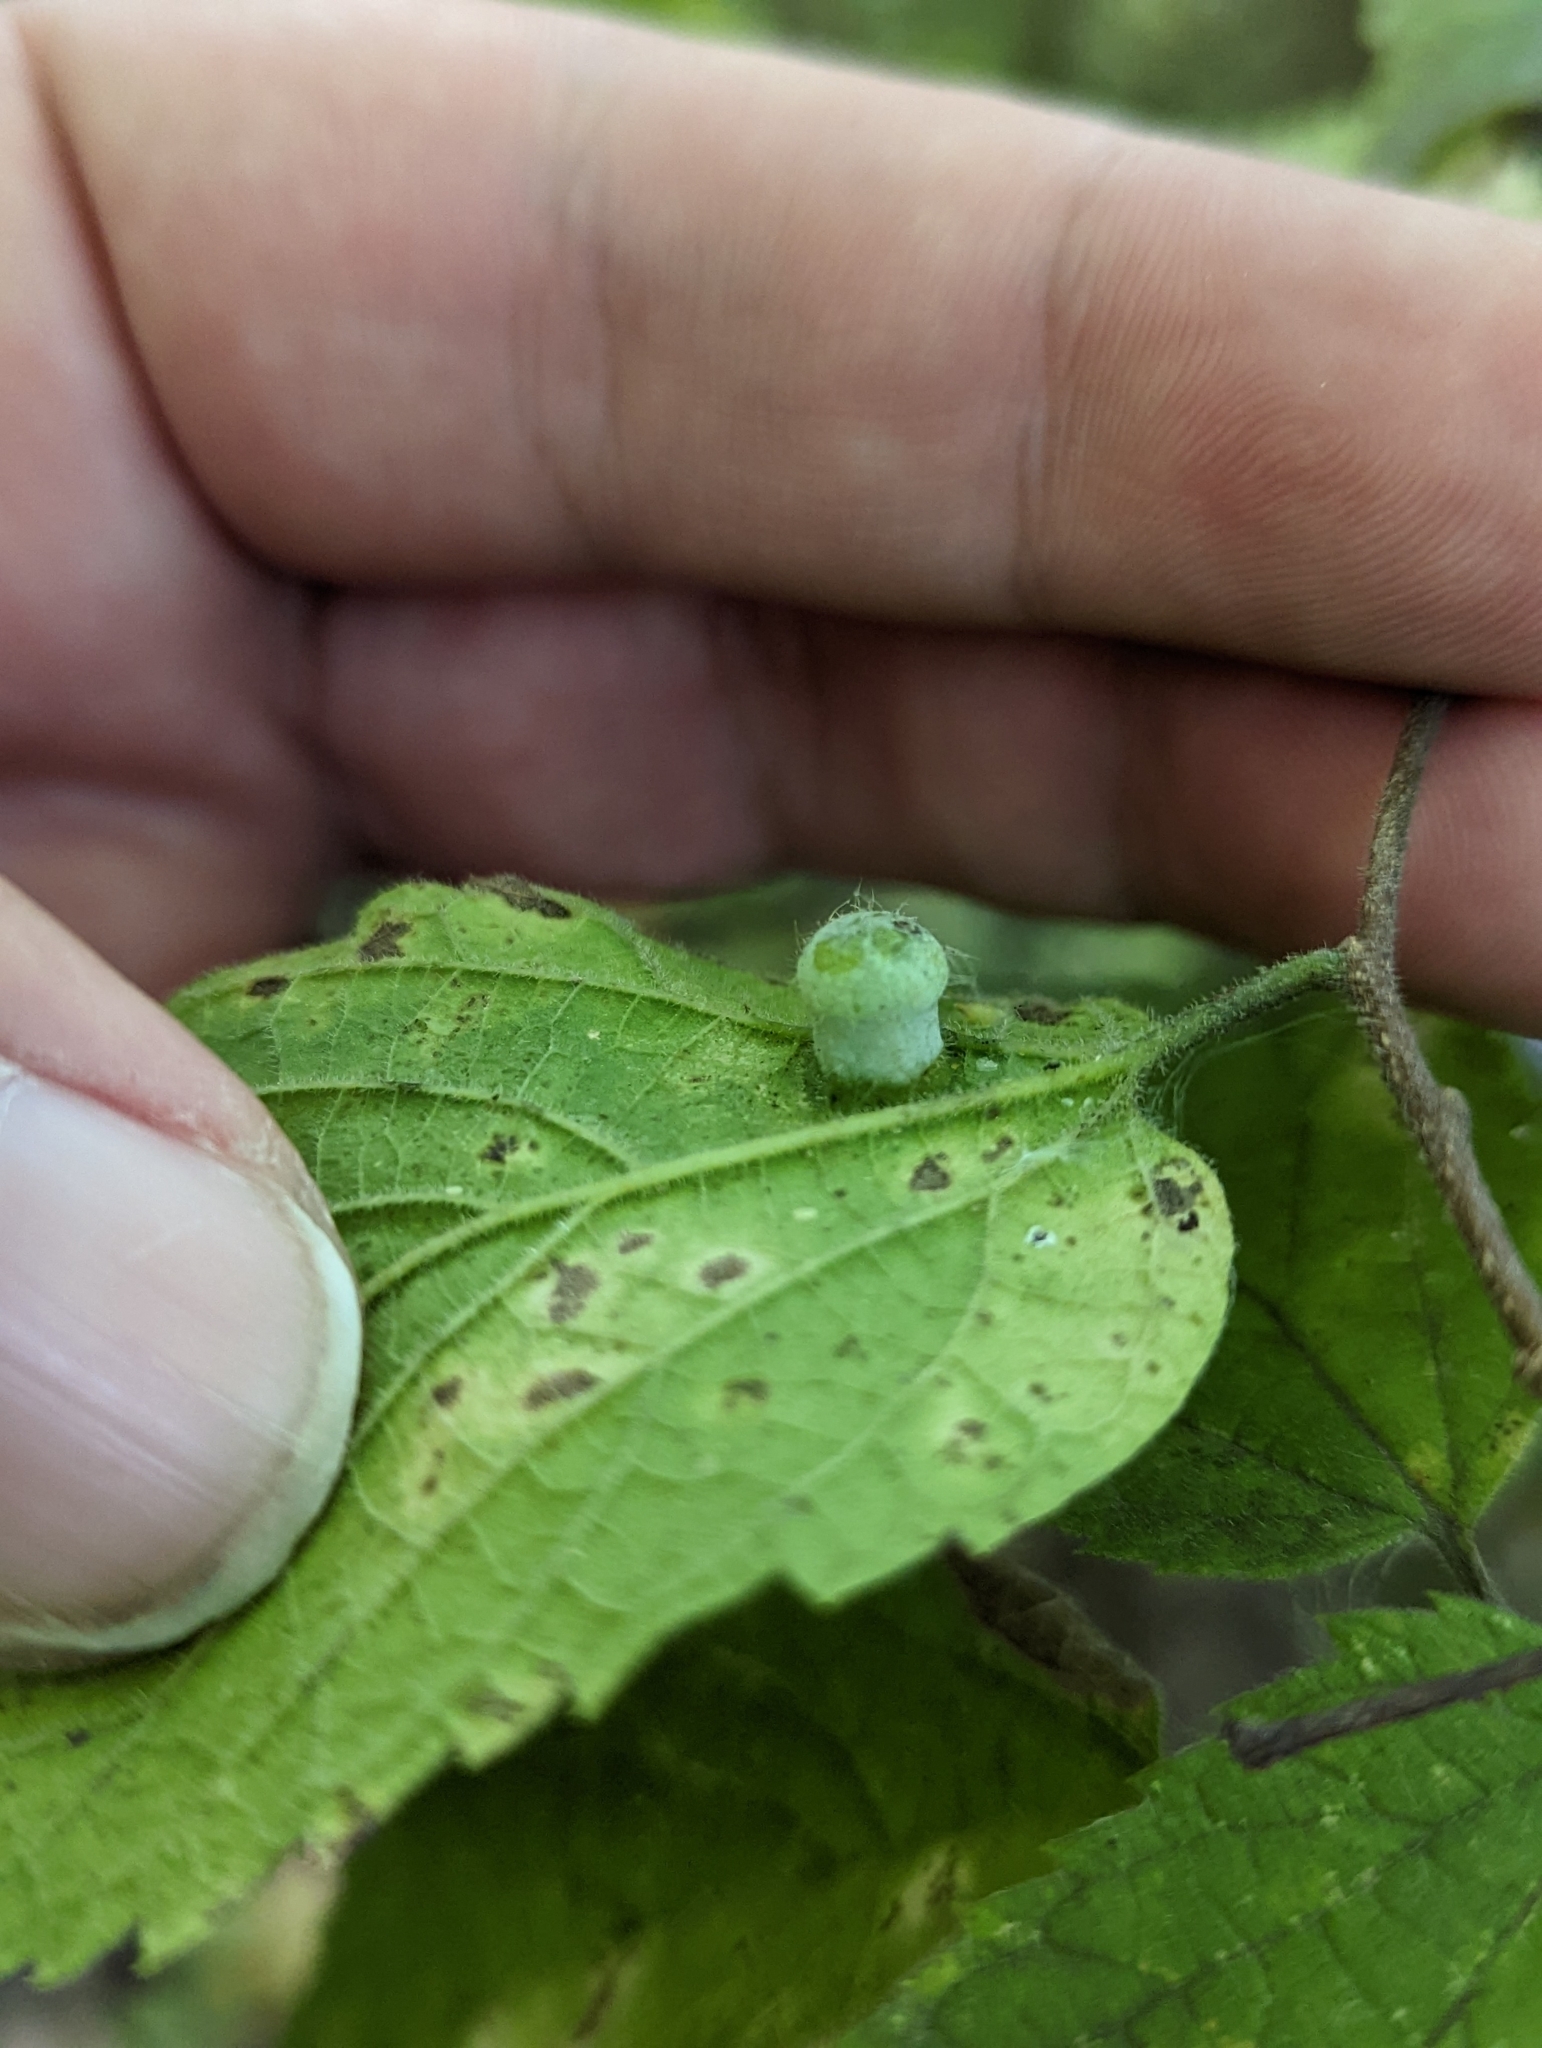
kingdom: Animalia
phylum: Arthropoda
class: Insecta
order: Hemiptera
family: Aphalaridae
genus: Pachypsylla
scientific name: Pachypsylla celtidismamma
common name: Hackberry nipplegall psyllid
